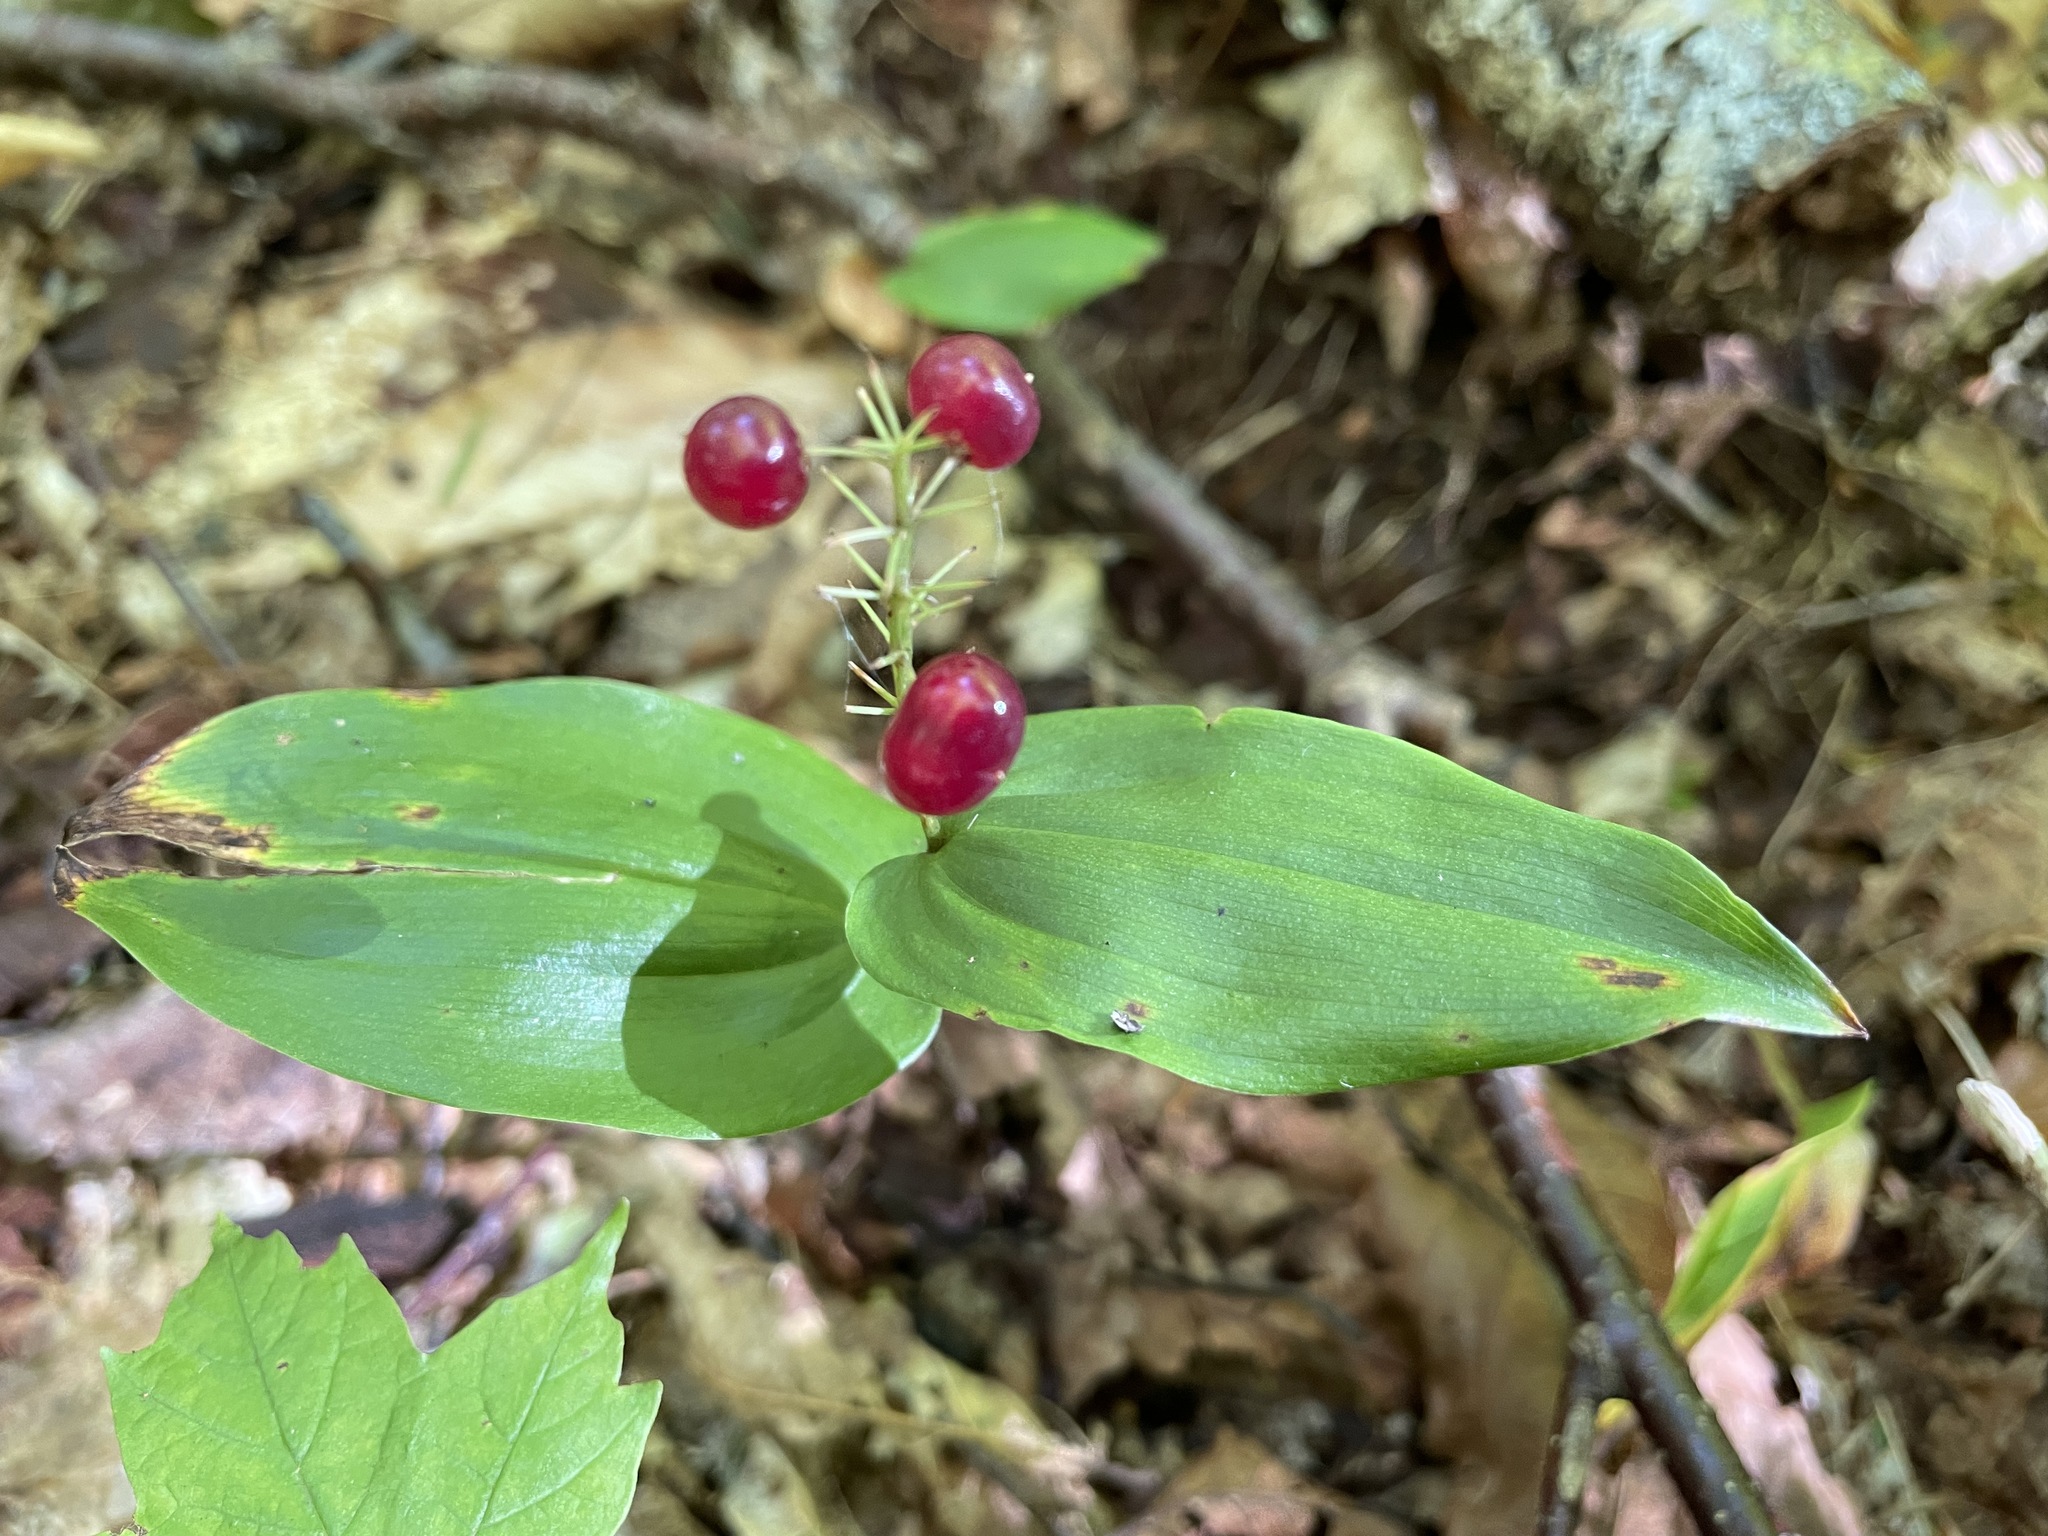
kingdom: Plantae
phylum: Tracheophyta
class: Liliopsida
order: Asparagales
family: Asparagaceae
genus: Maianthemum
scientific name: Maianthemum canadense
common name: False lily-of-the-valley
